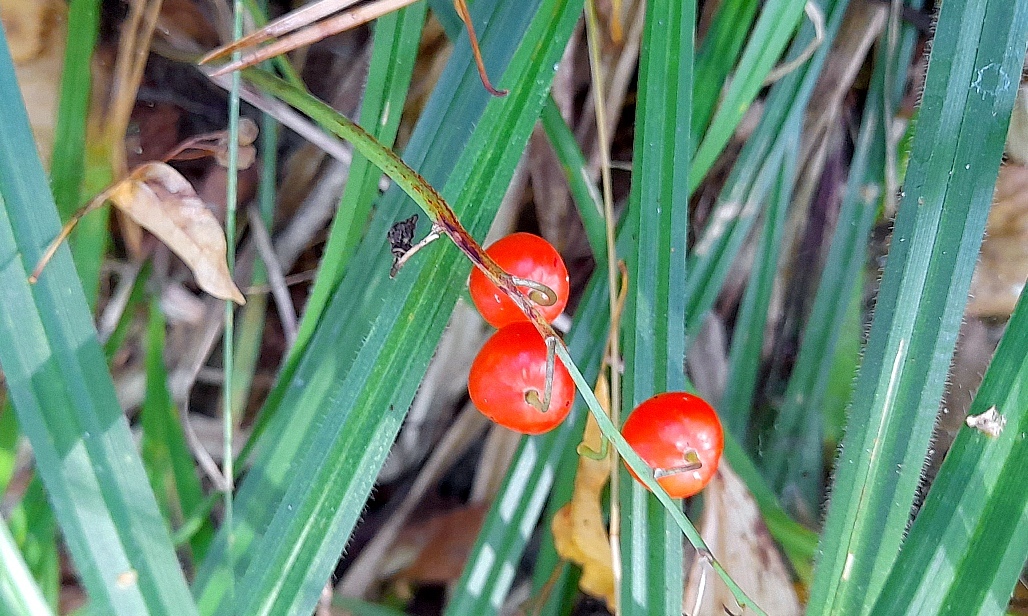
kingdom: Plantae
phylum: Tracheophyta
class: Liliopsida
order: Asparagales
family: Asparagaceae
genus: Convallaria
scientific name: Convallaria majalis
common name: Lily-of-the-valley
